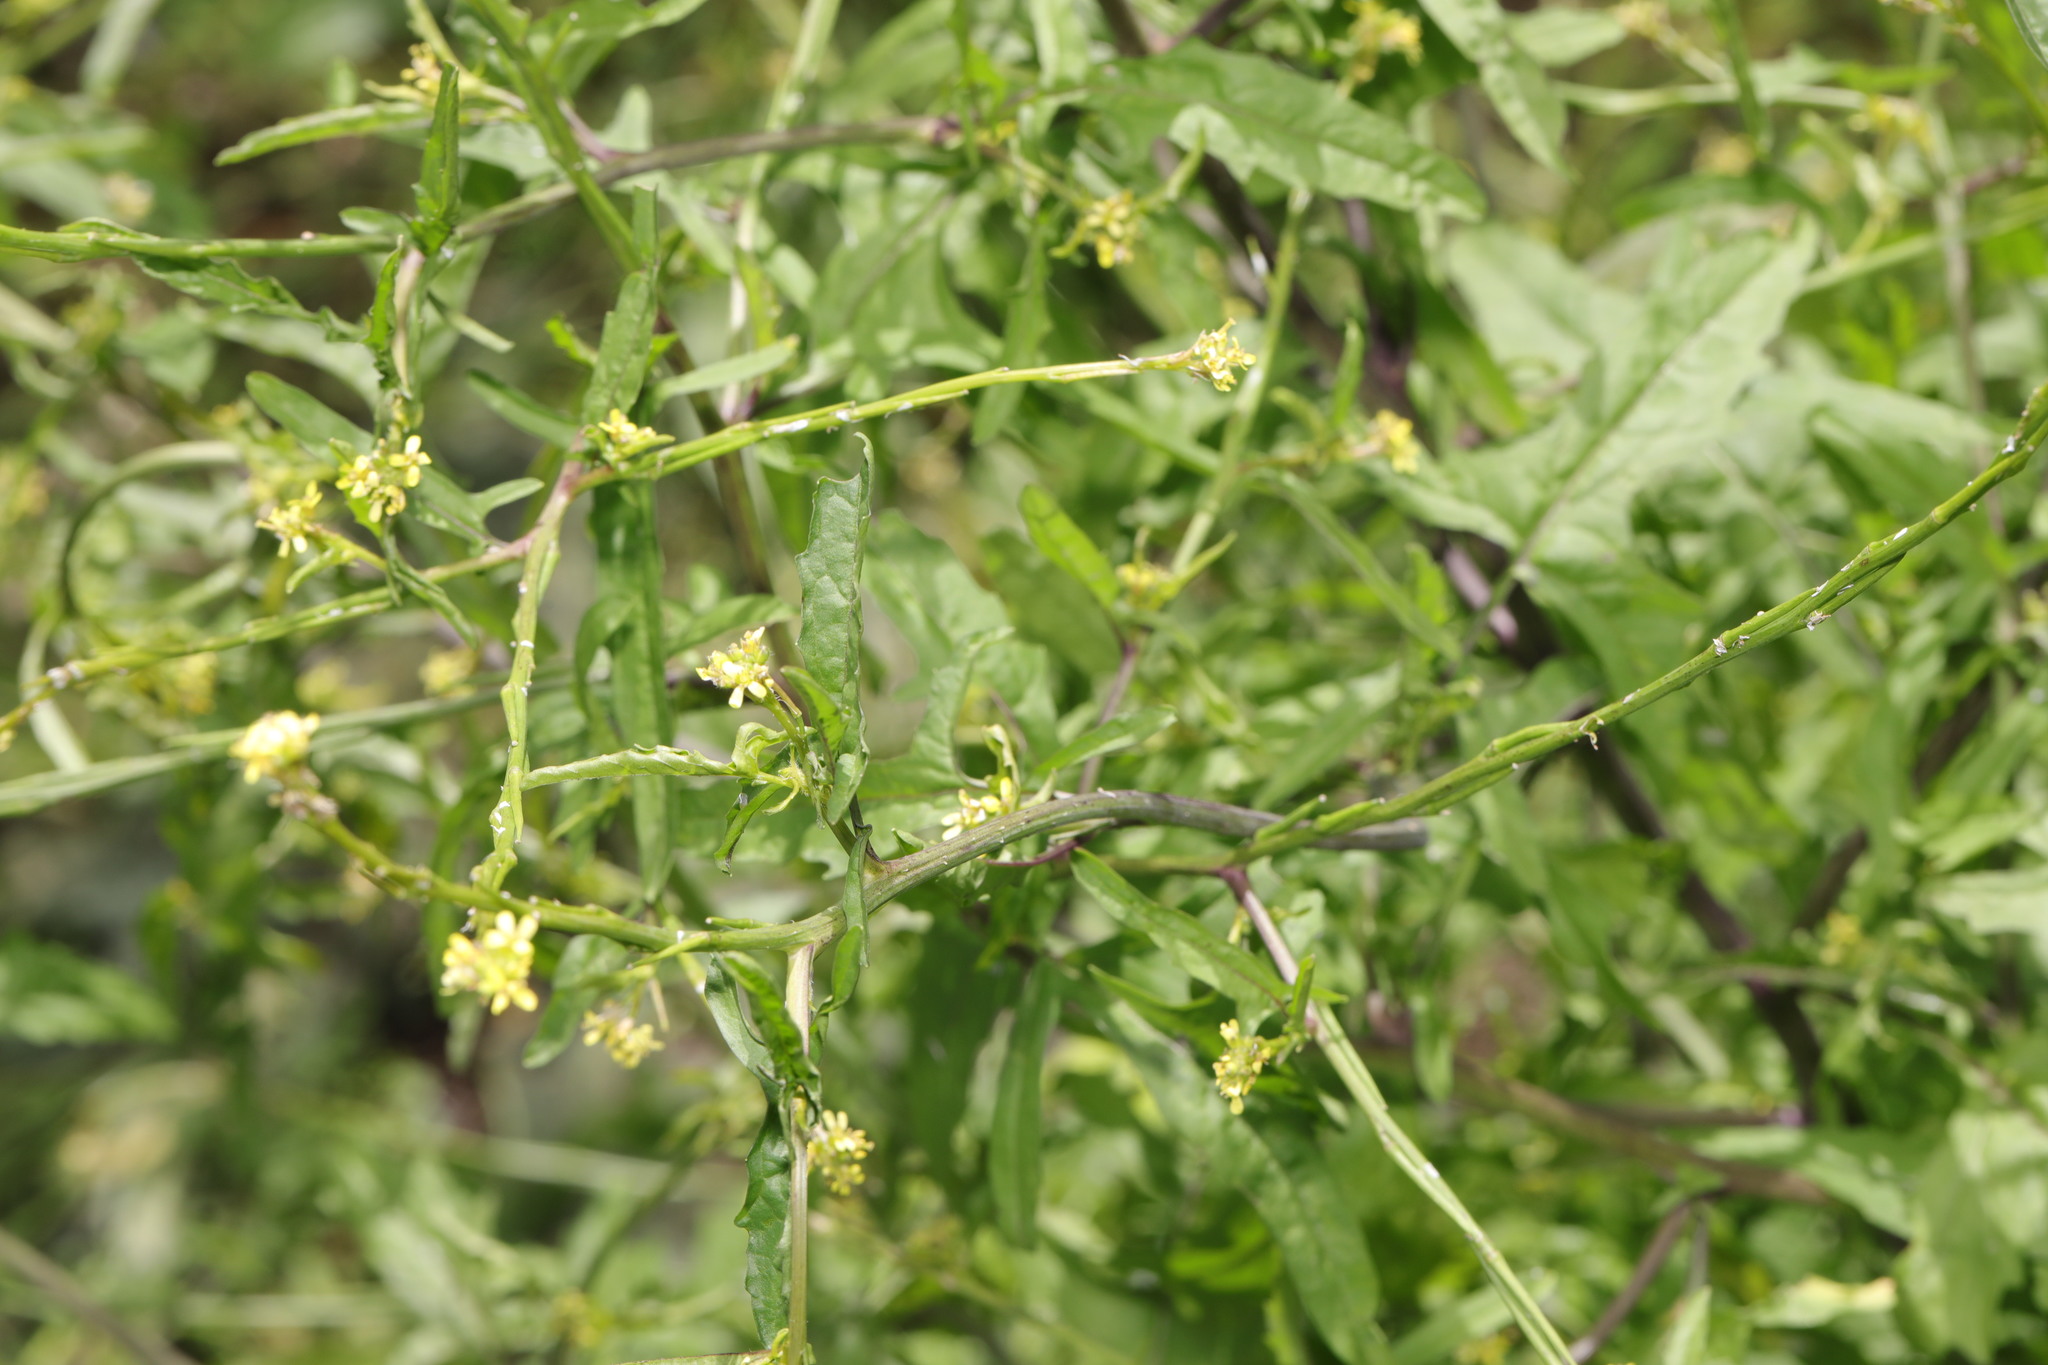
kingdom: Plantae
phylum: Tracheophyta
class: Magnoliopsida
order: Brassicales
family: Brassicaceae
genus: Sisymbrium
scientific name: Sisymbrium officinale
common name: Hedge mustard
